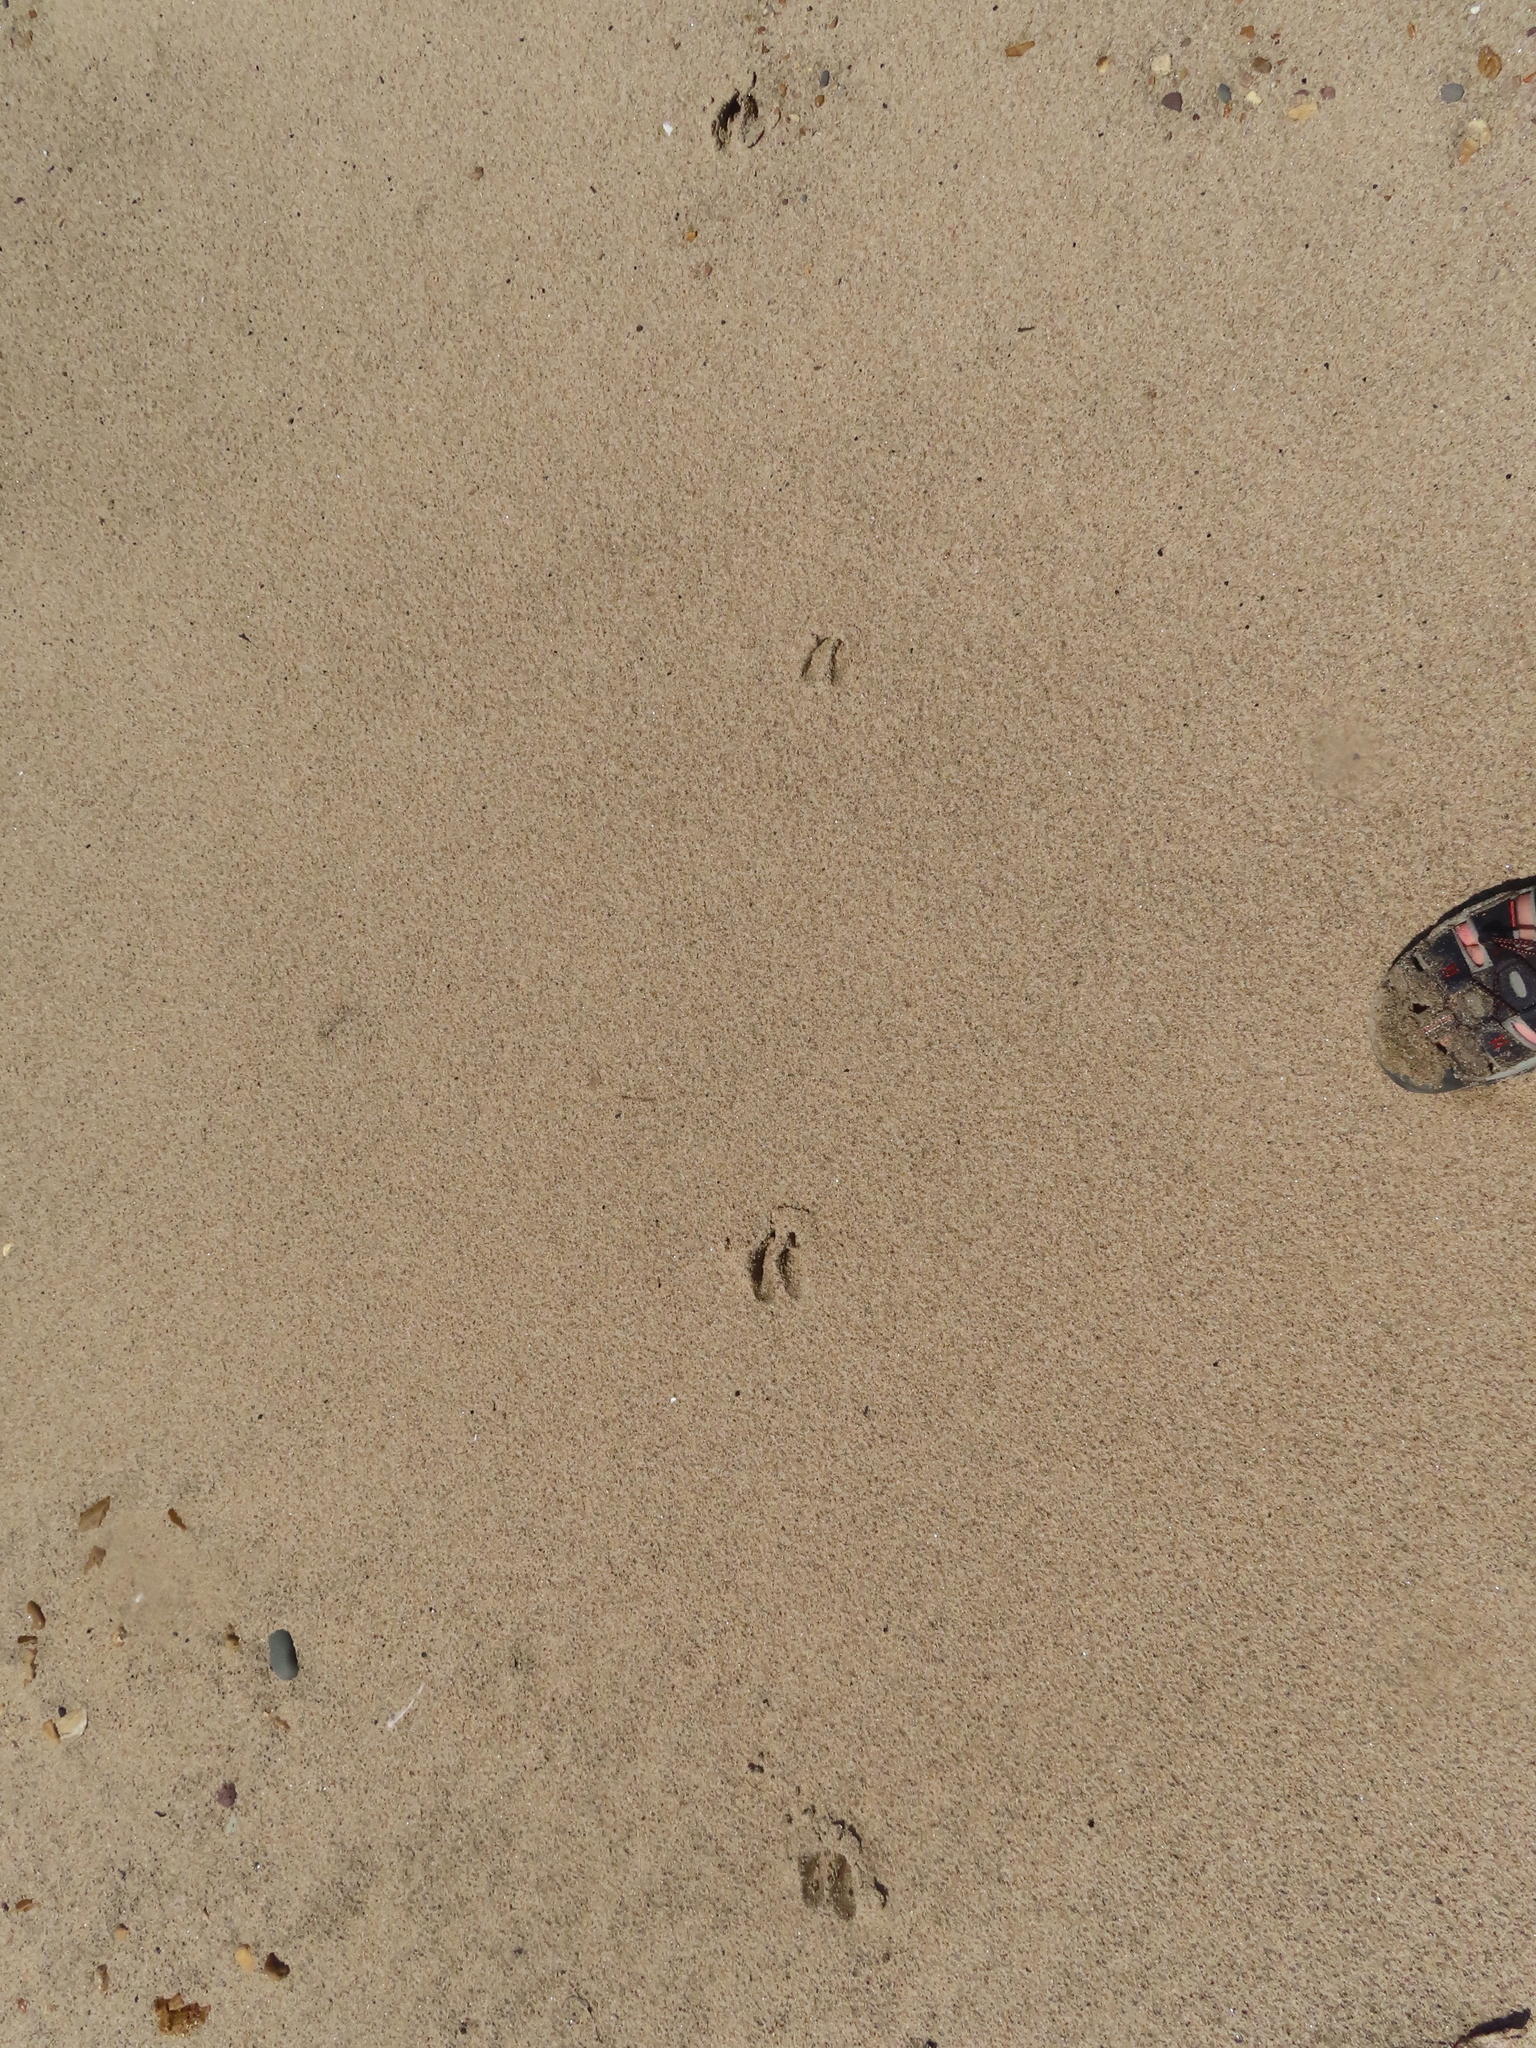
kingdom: Animalia
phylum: Chordata
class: Mammalia
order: Artiodactyla
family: Cervidae
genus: Odocoileus
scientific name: Odocoileus virginianus
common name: White-tailed deer
